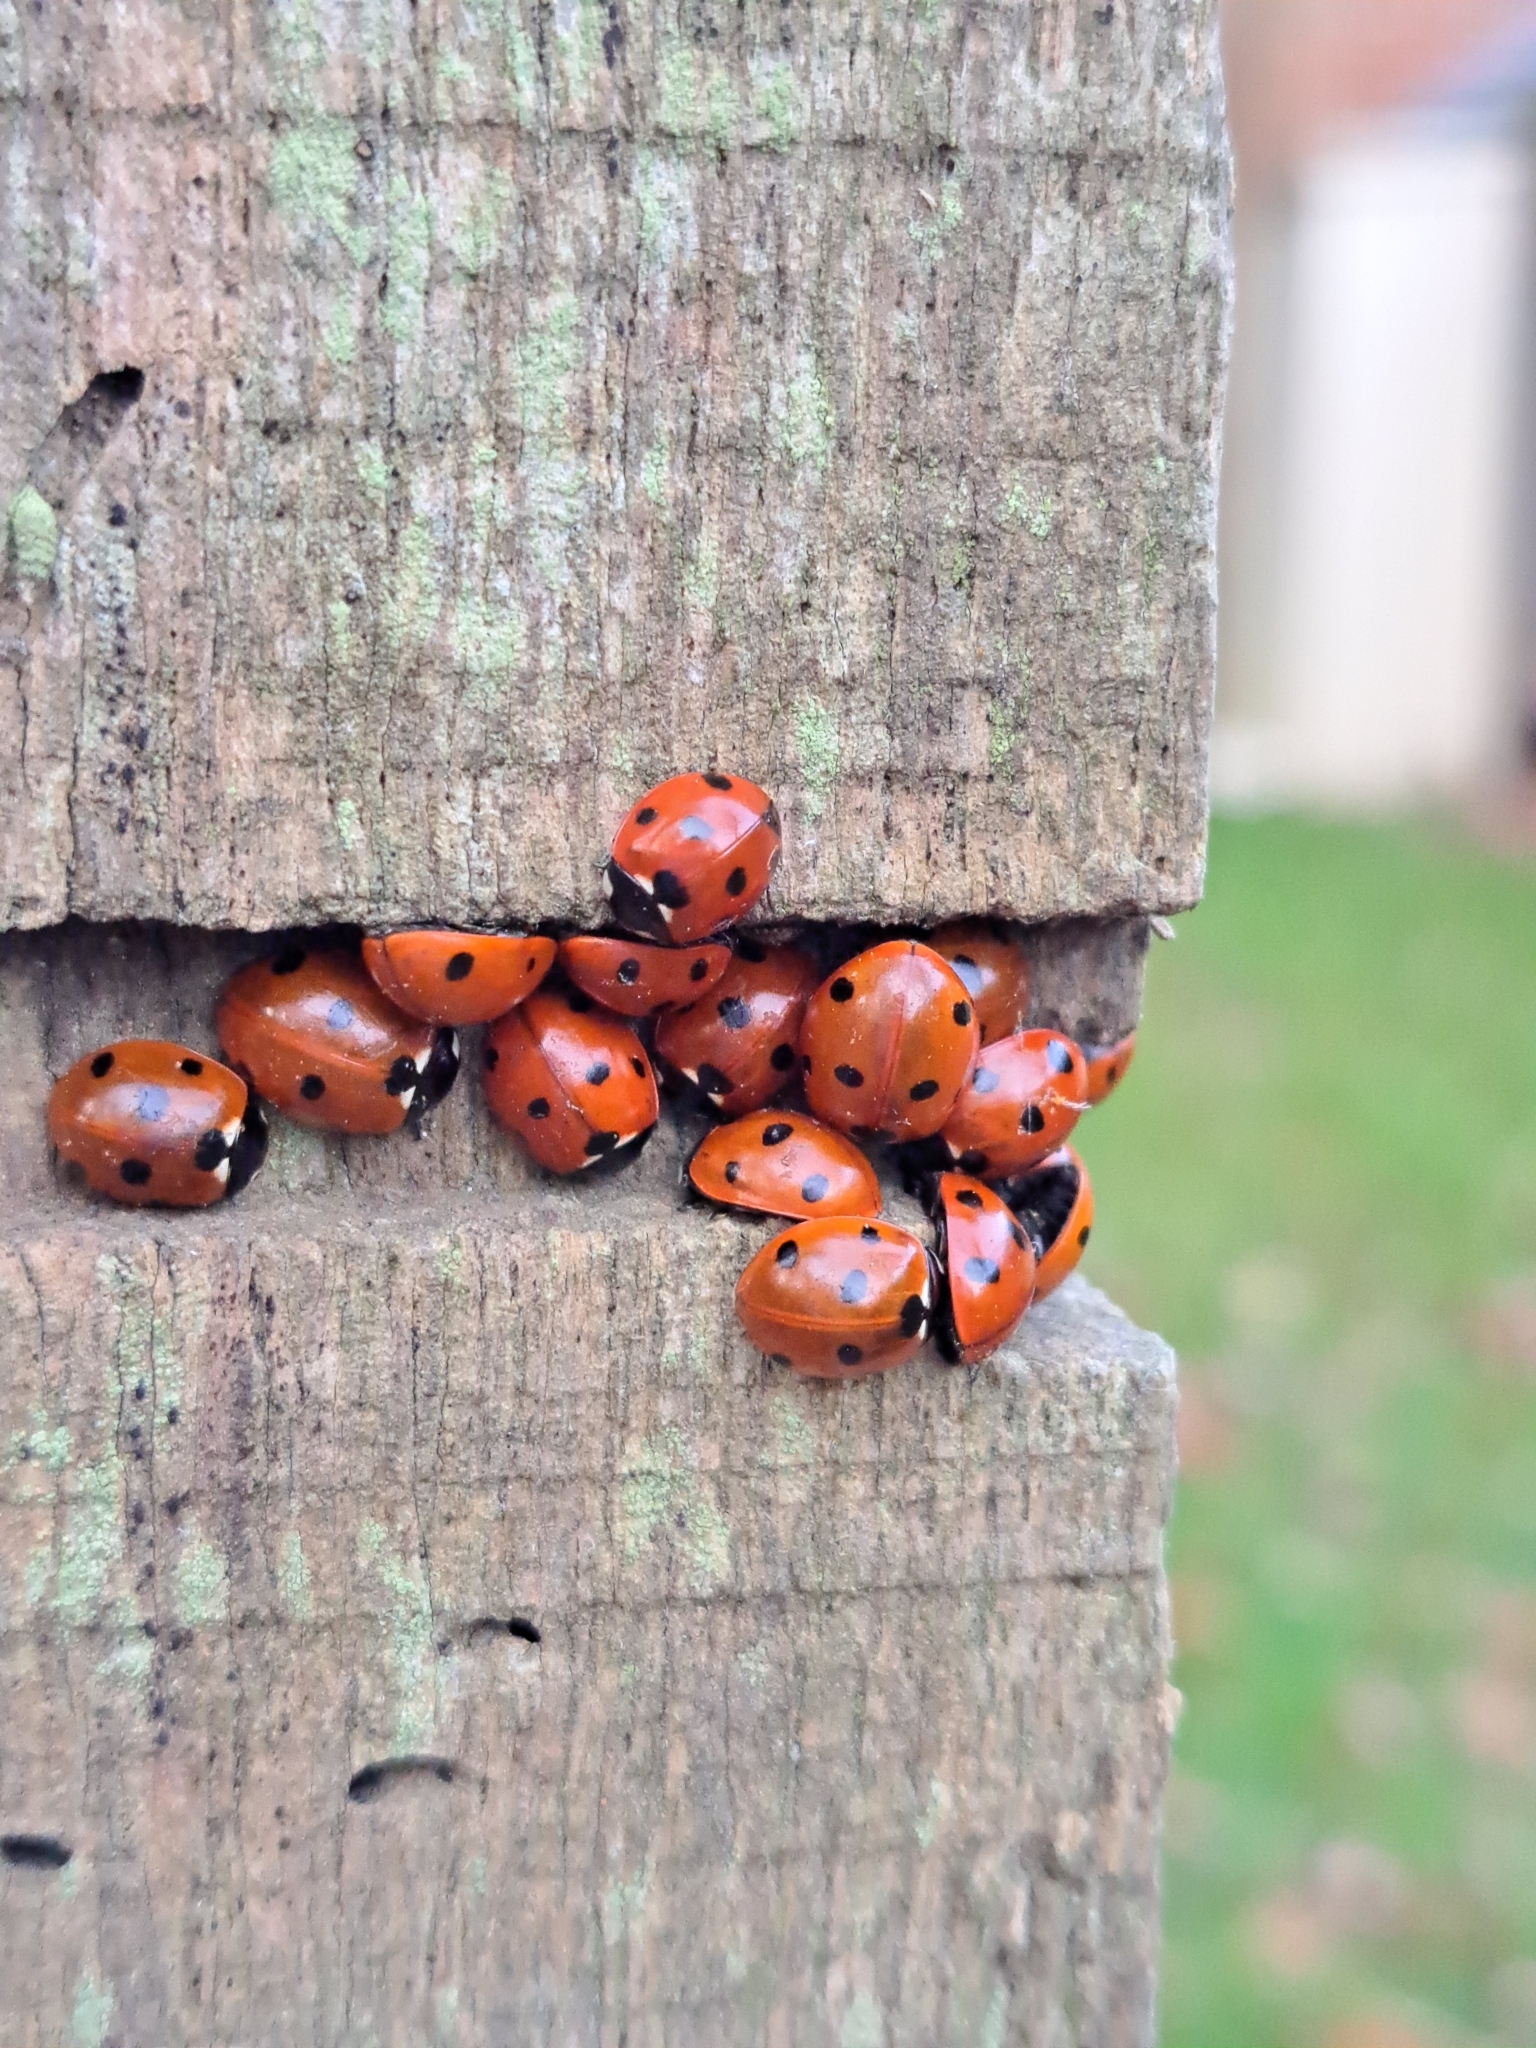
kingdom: Animalia
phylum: Arthropoda
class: Insecta
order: Coleoptera
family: Coccinellidae
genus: Coccinella
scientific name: Coccinella septempunctata
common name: Sevenspotted lady beetle
